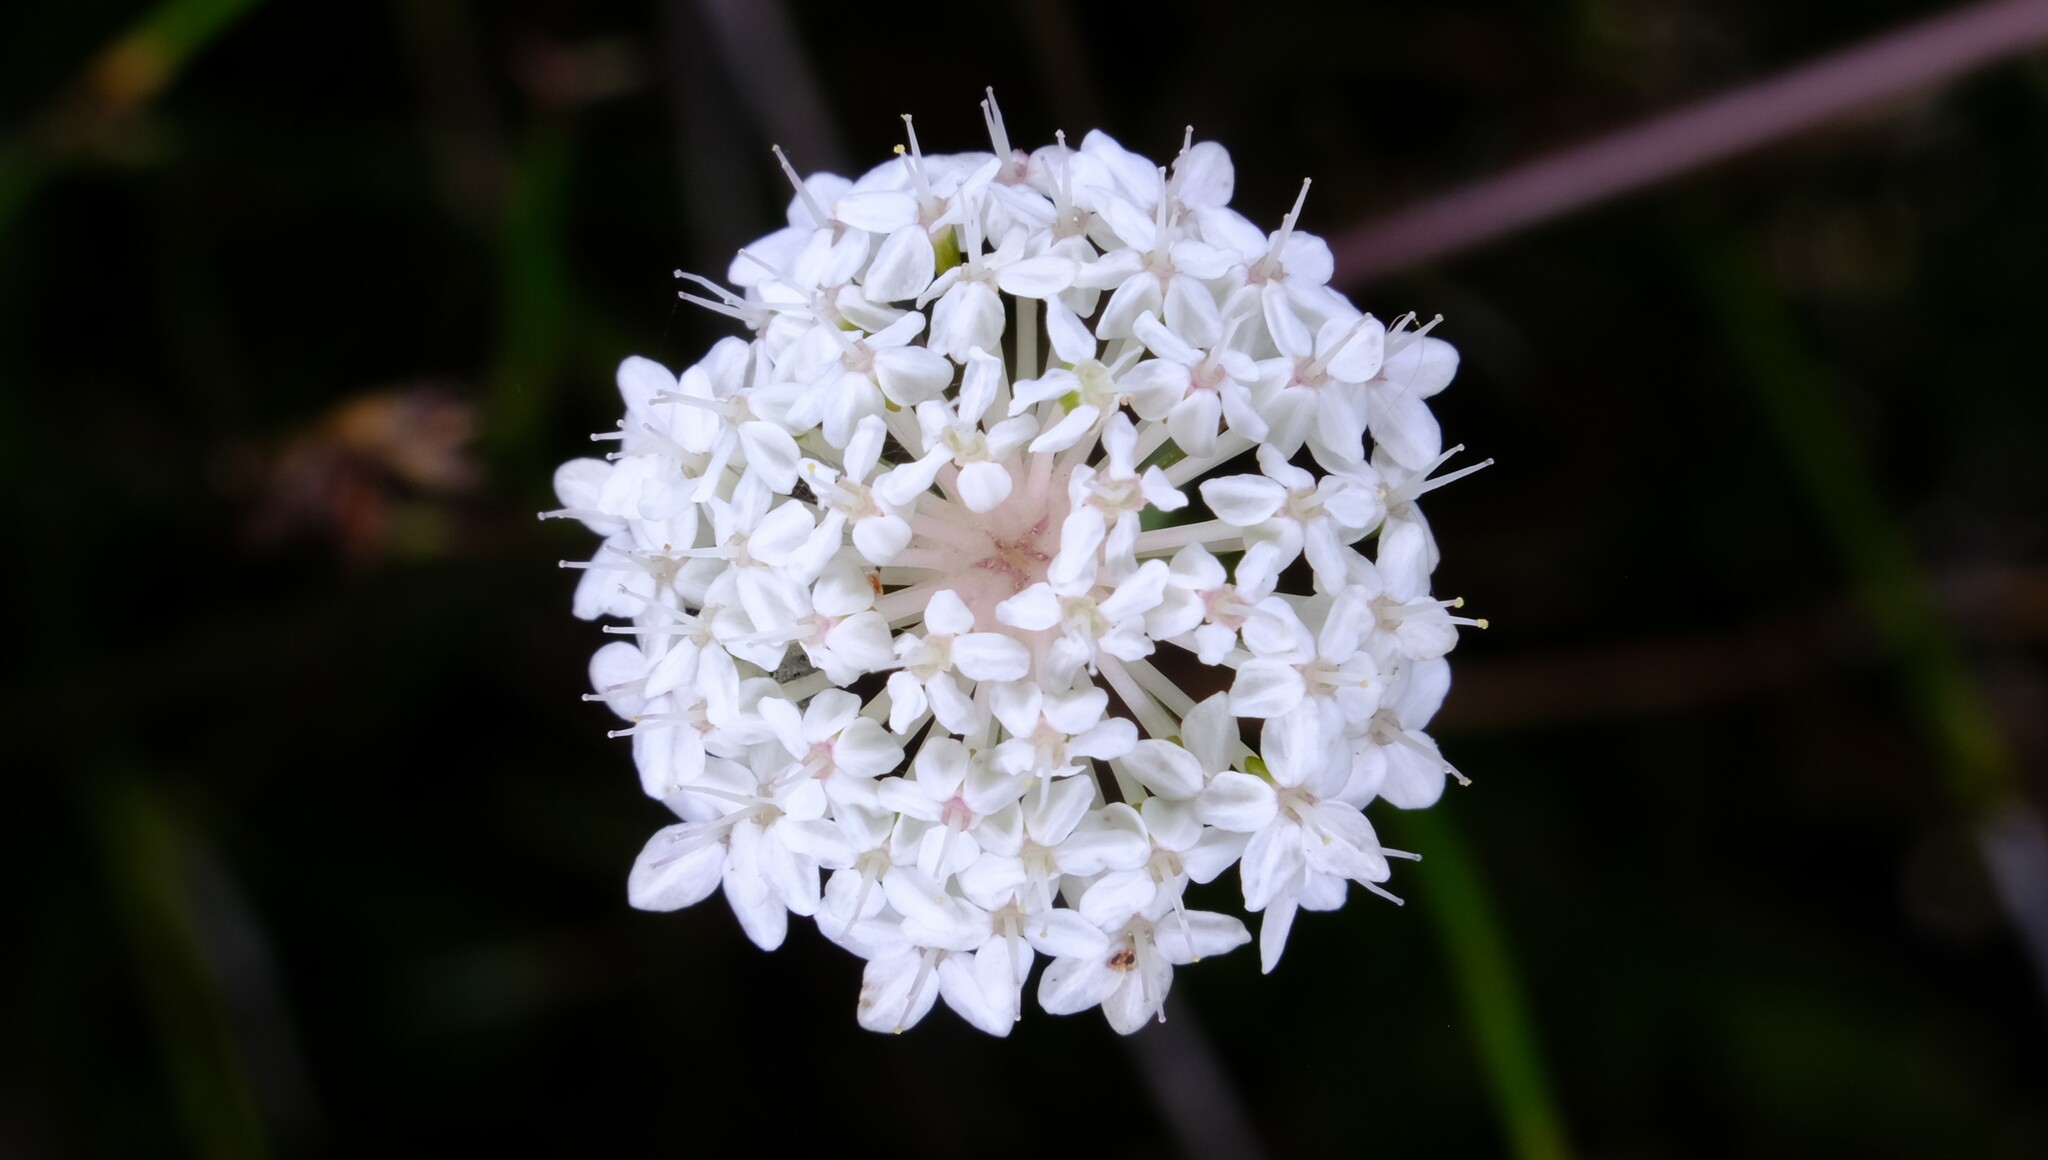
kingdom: Plantae
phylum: Tracheophyta
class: Magnoliopsida
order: Apiales
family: Araliaceae
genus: Trachymene
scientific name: Trachymene incisa
